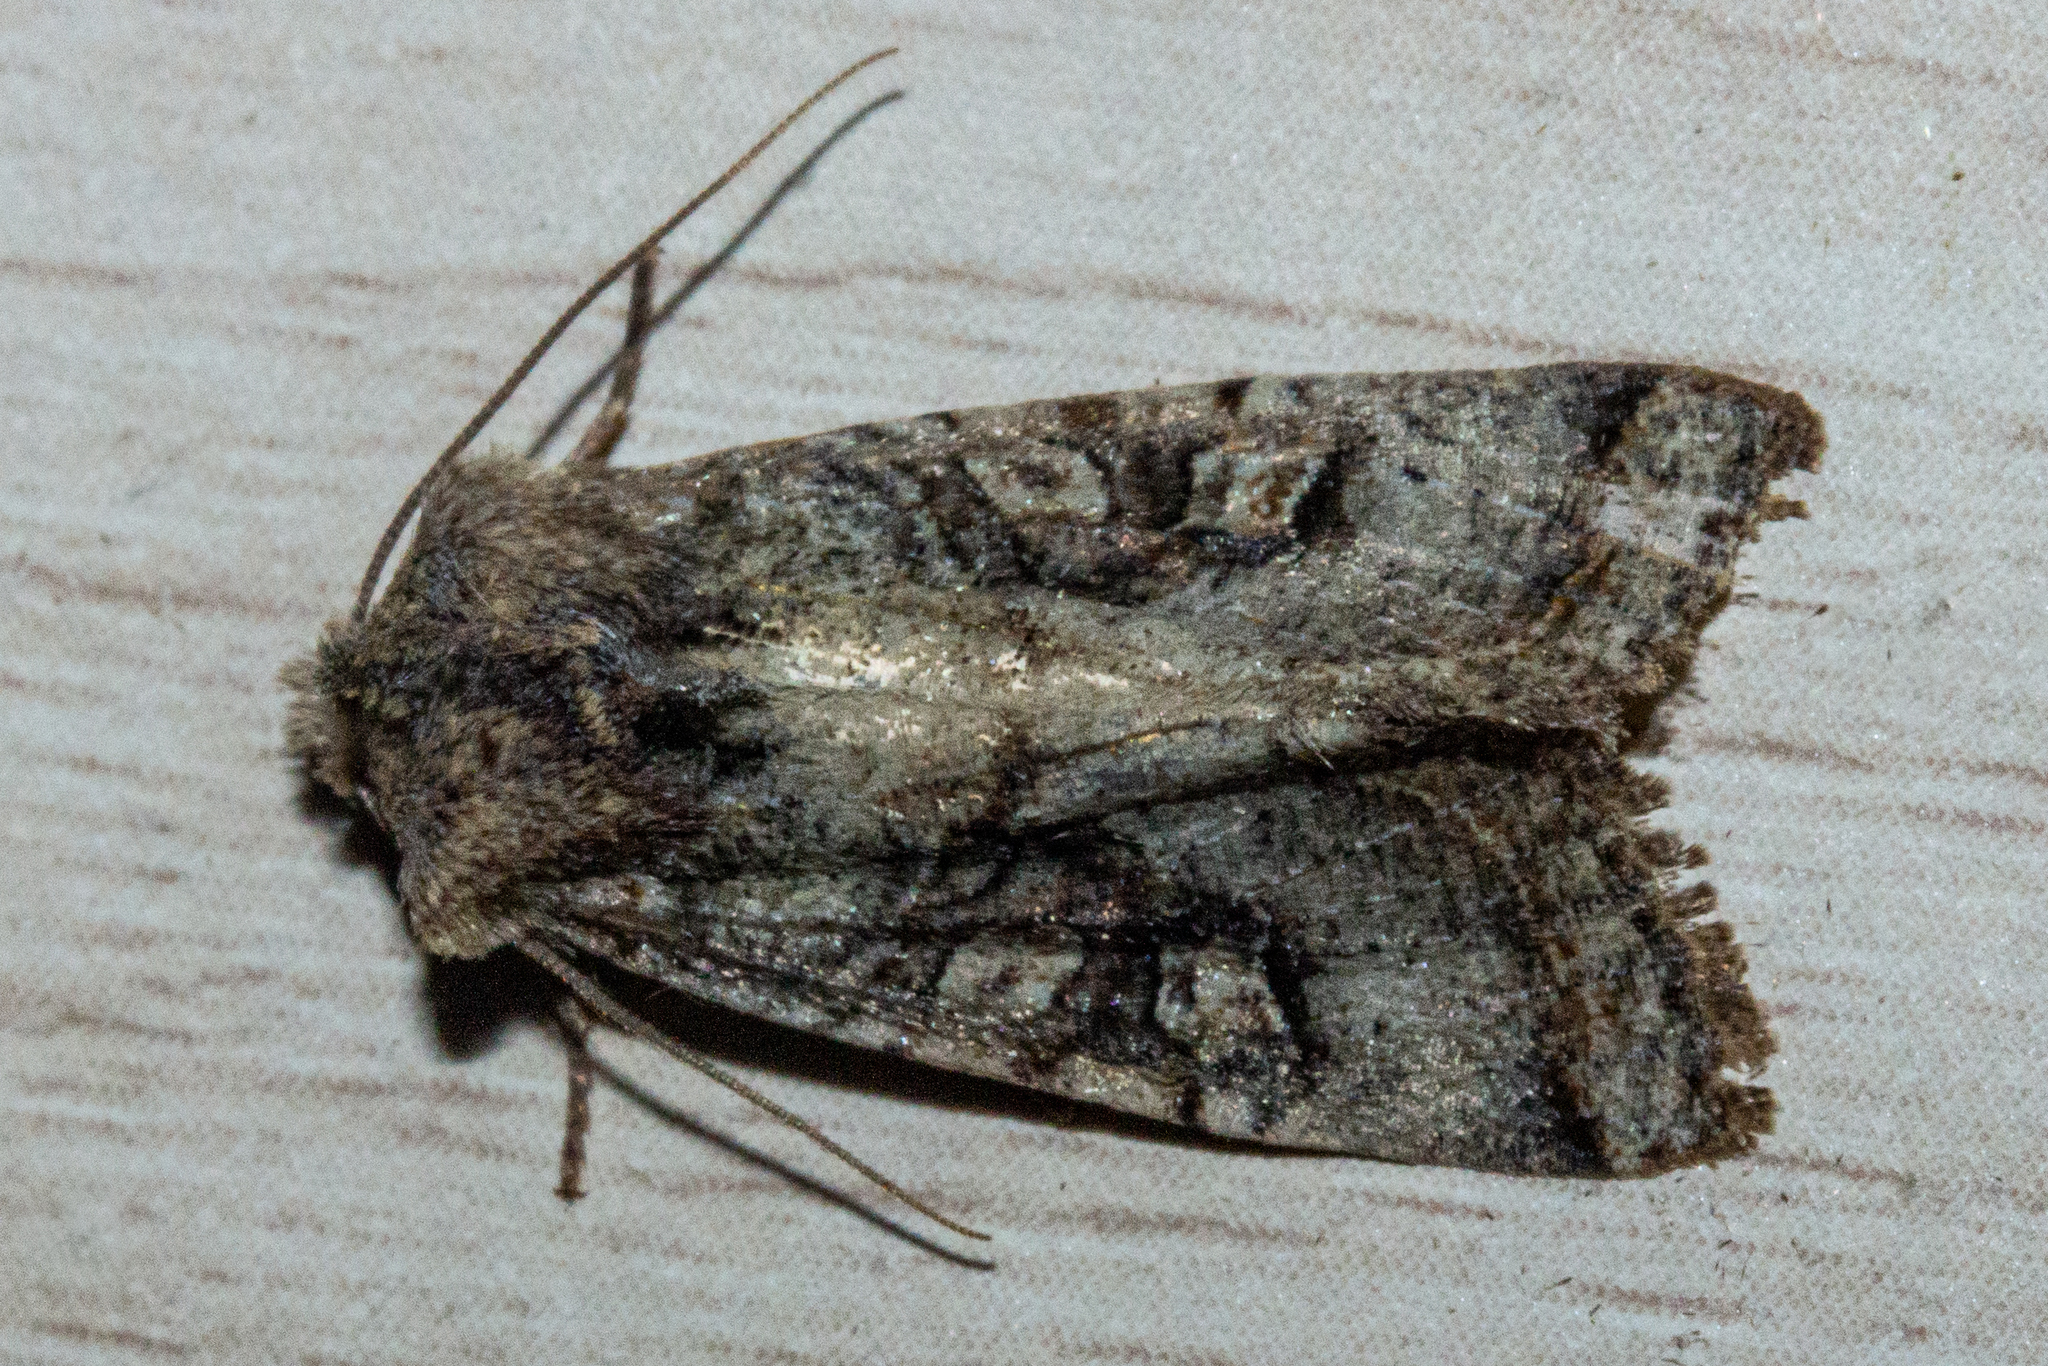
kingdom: Animalia
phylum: Arthropoda
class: Insecta
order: Lepidoptera
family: Noctuidae
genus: Meterana
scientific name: Meterana tartaraea
